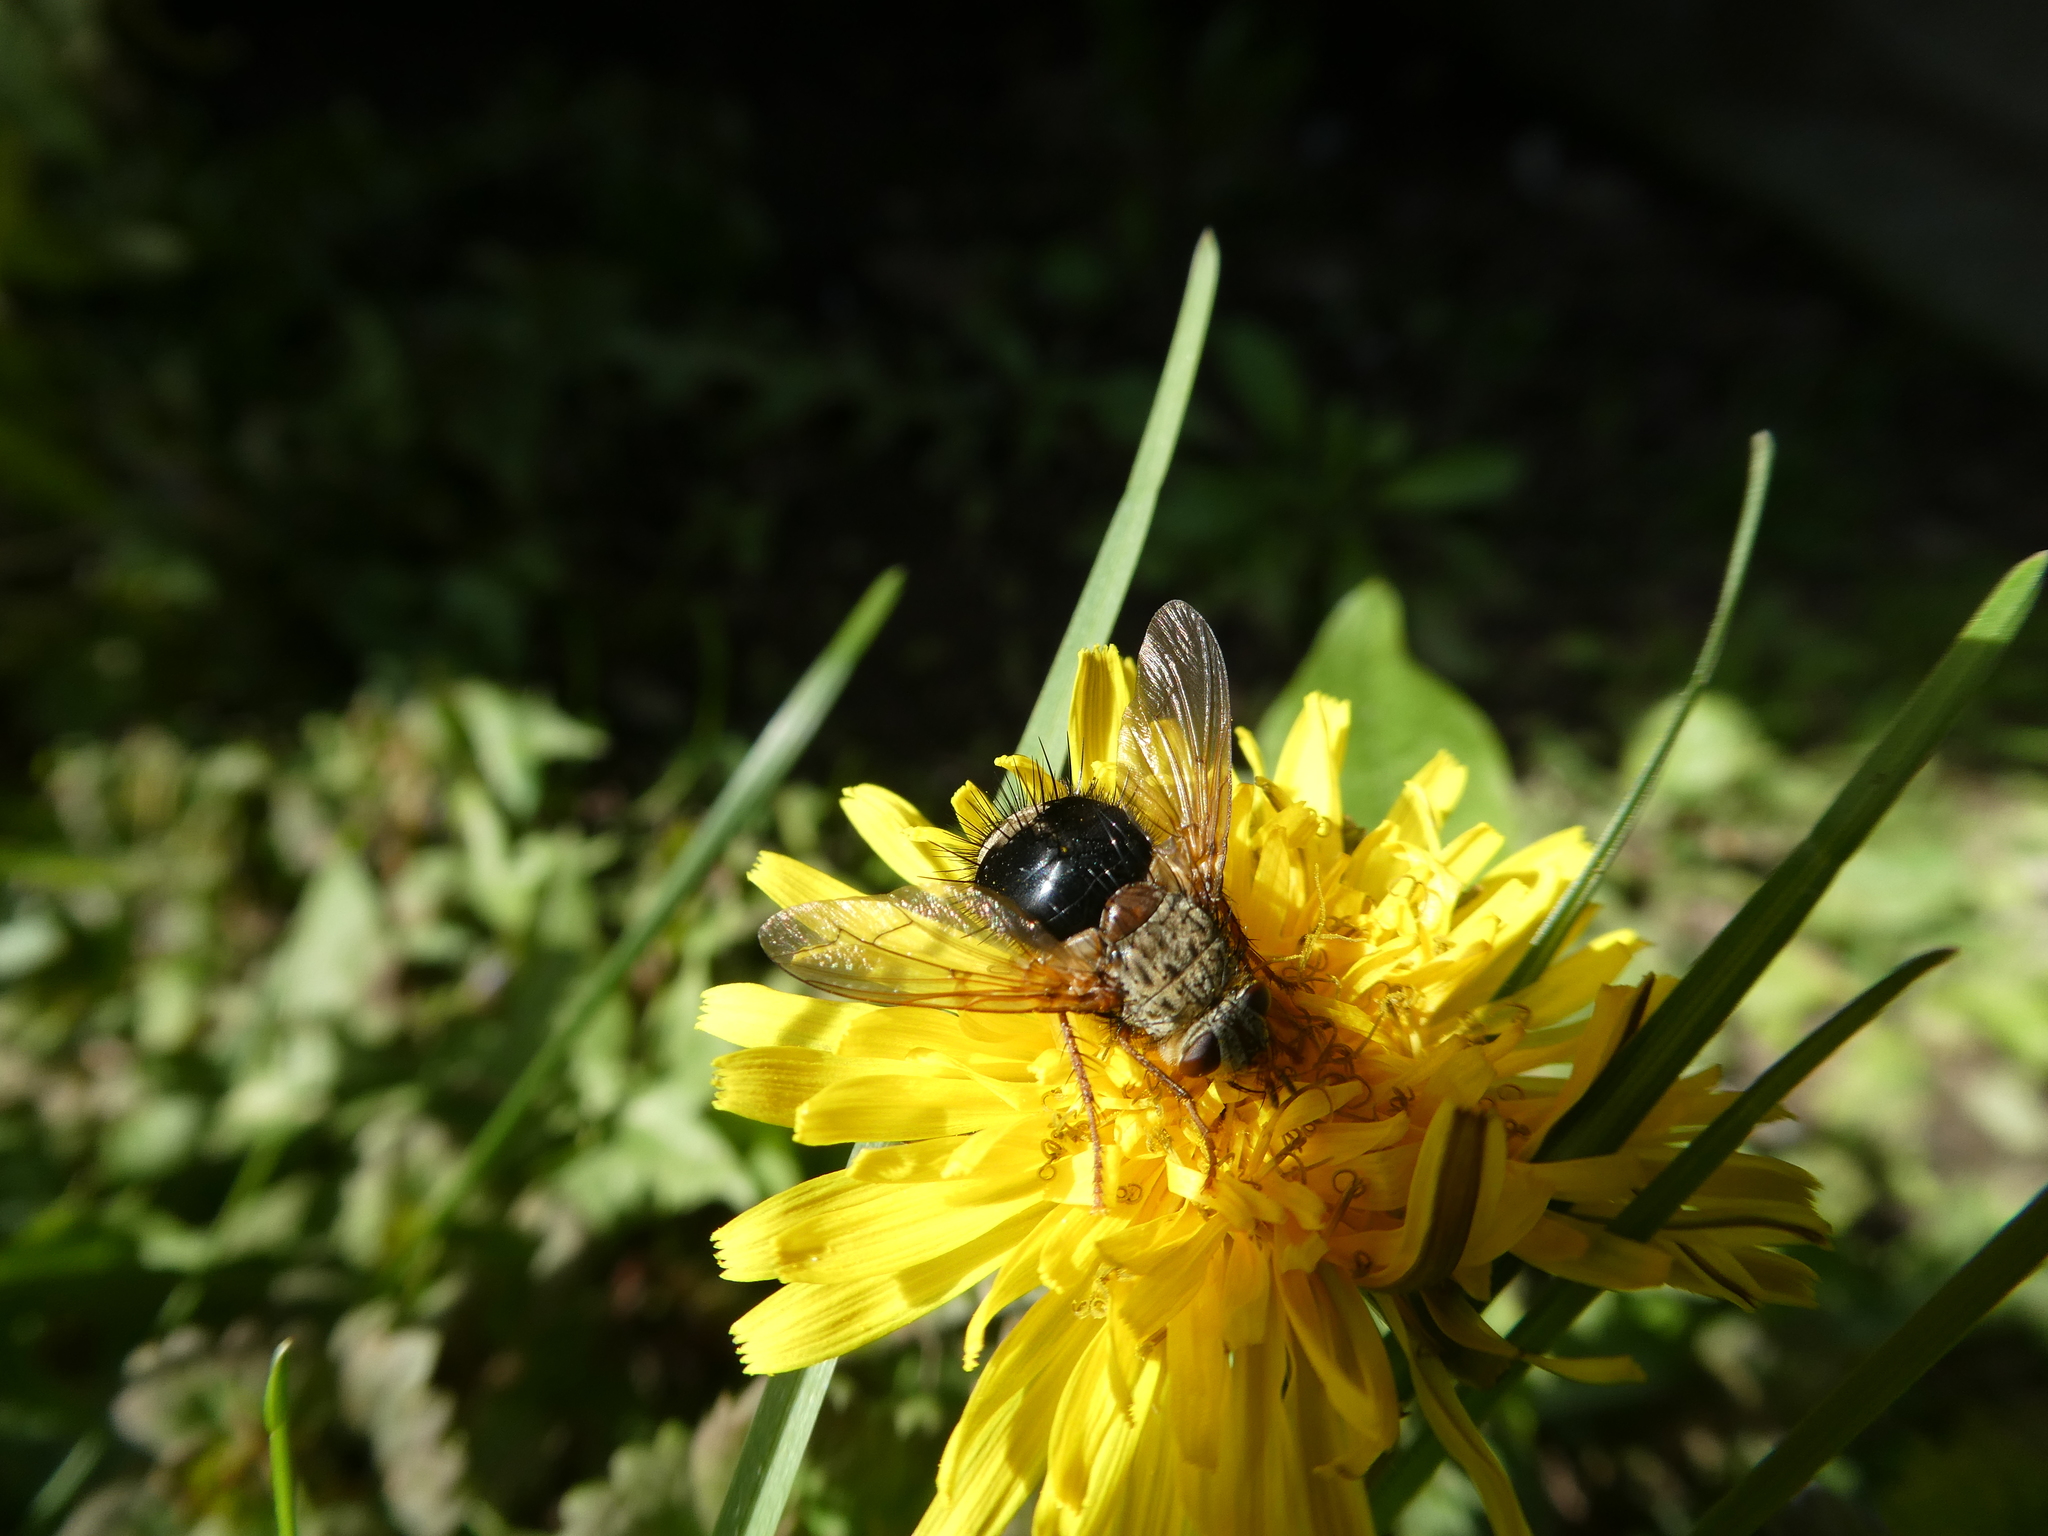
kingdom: Animalia
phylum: Arthropoda
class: Insecta
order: Diptera
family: Tachinidae
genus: Epalpus
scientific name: Epalpus signifer
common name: Early tachinid fly
